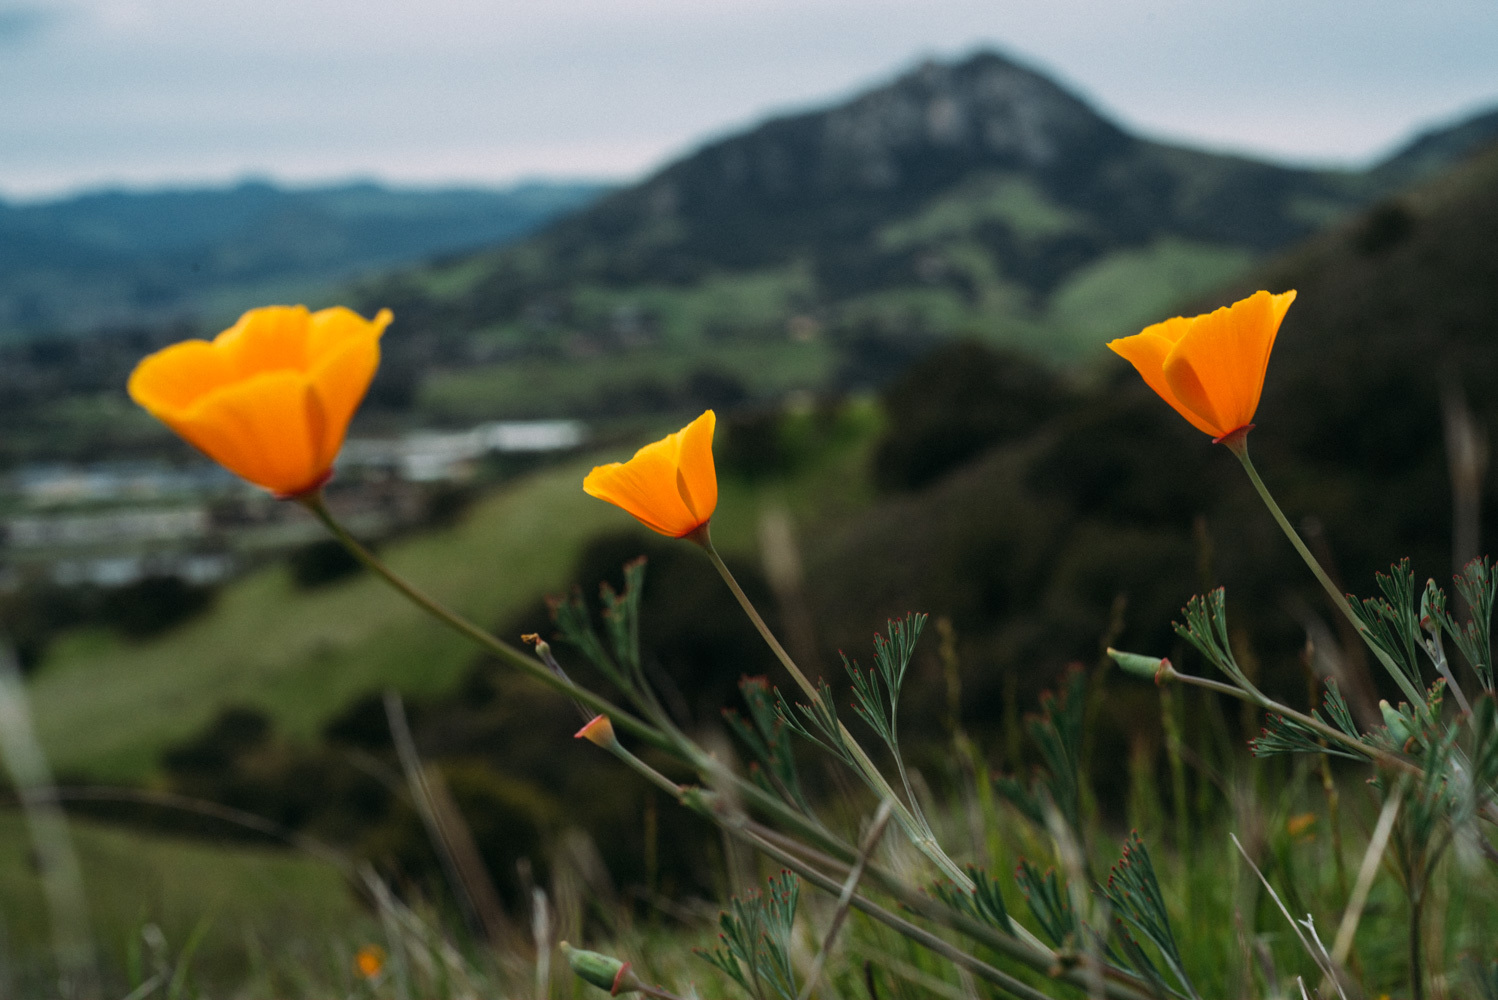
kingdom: Plantae
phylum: Tracheophyta
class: Magnoliopsida
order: Ranunculales
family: Papaveraceae
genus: Eschscholzia
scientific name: Eschscholzia californica
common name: California poppy
